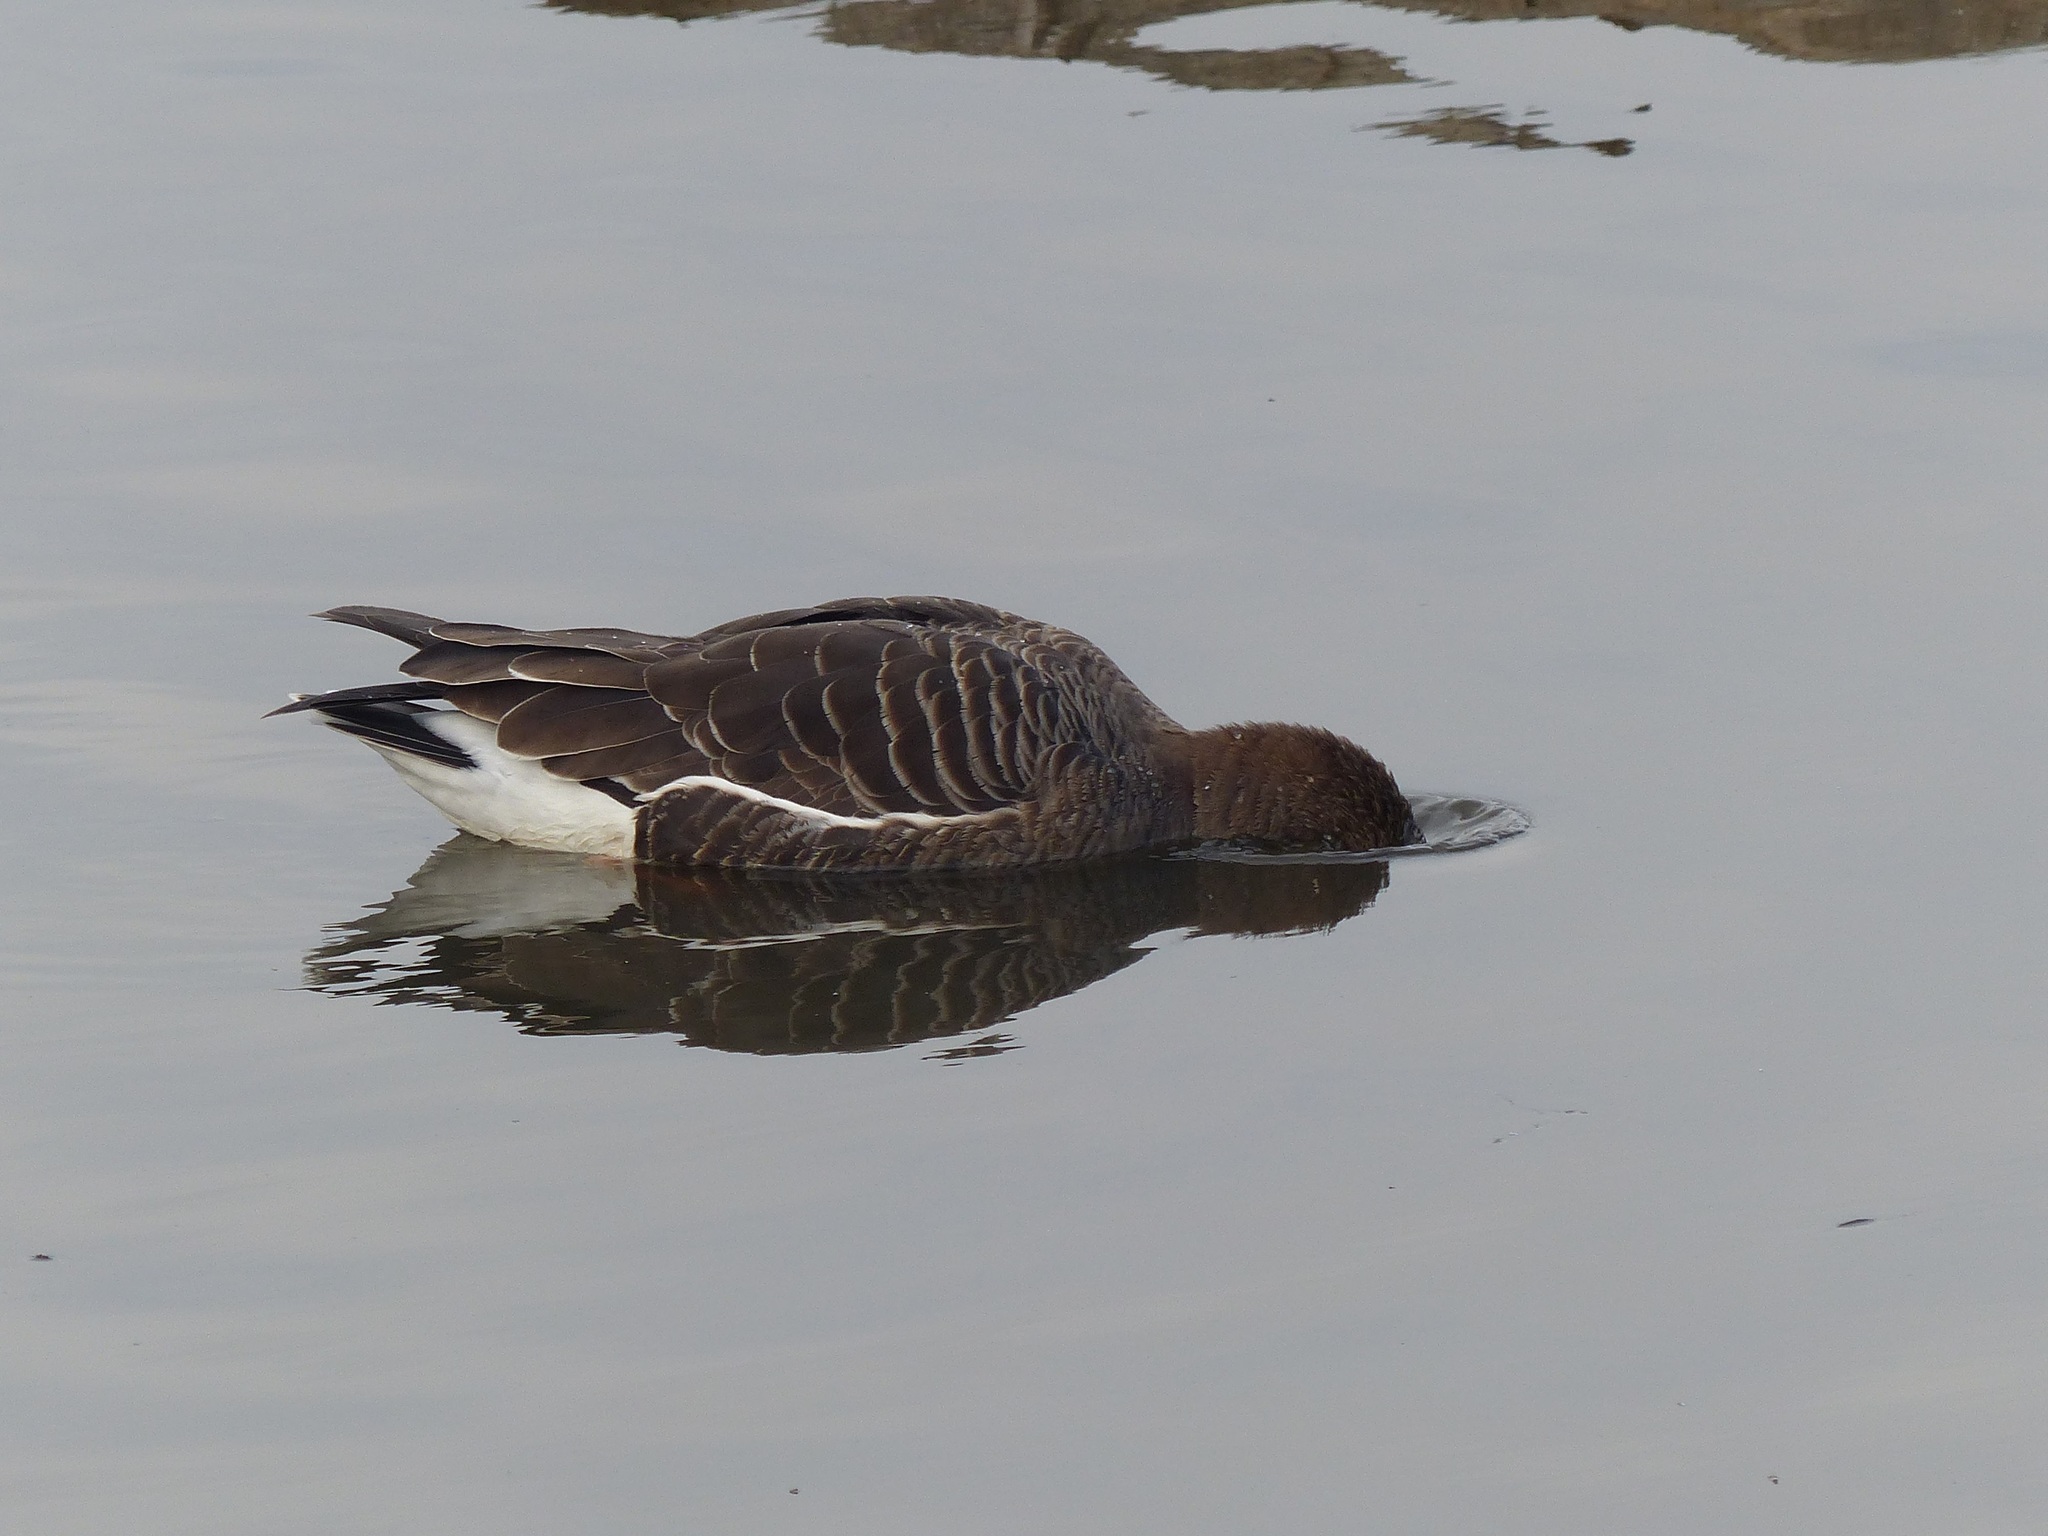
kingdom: Animalia
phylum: Chordata
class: Aves
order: Anseriformes
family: Anatidae
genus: Anser
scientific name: Anser albifrons
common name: Greater white-fronted goose
